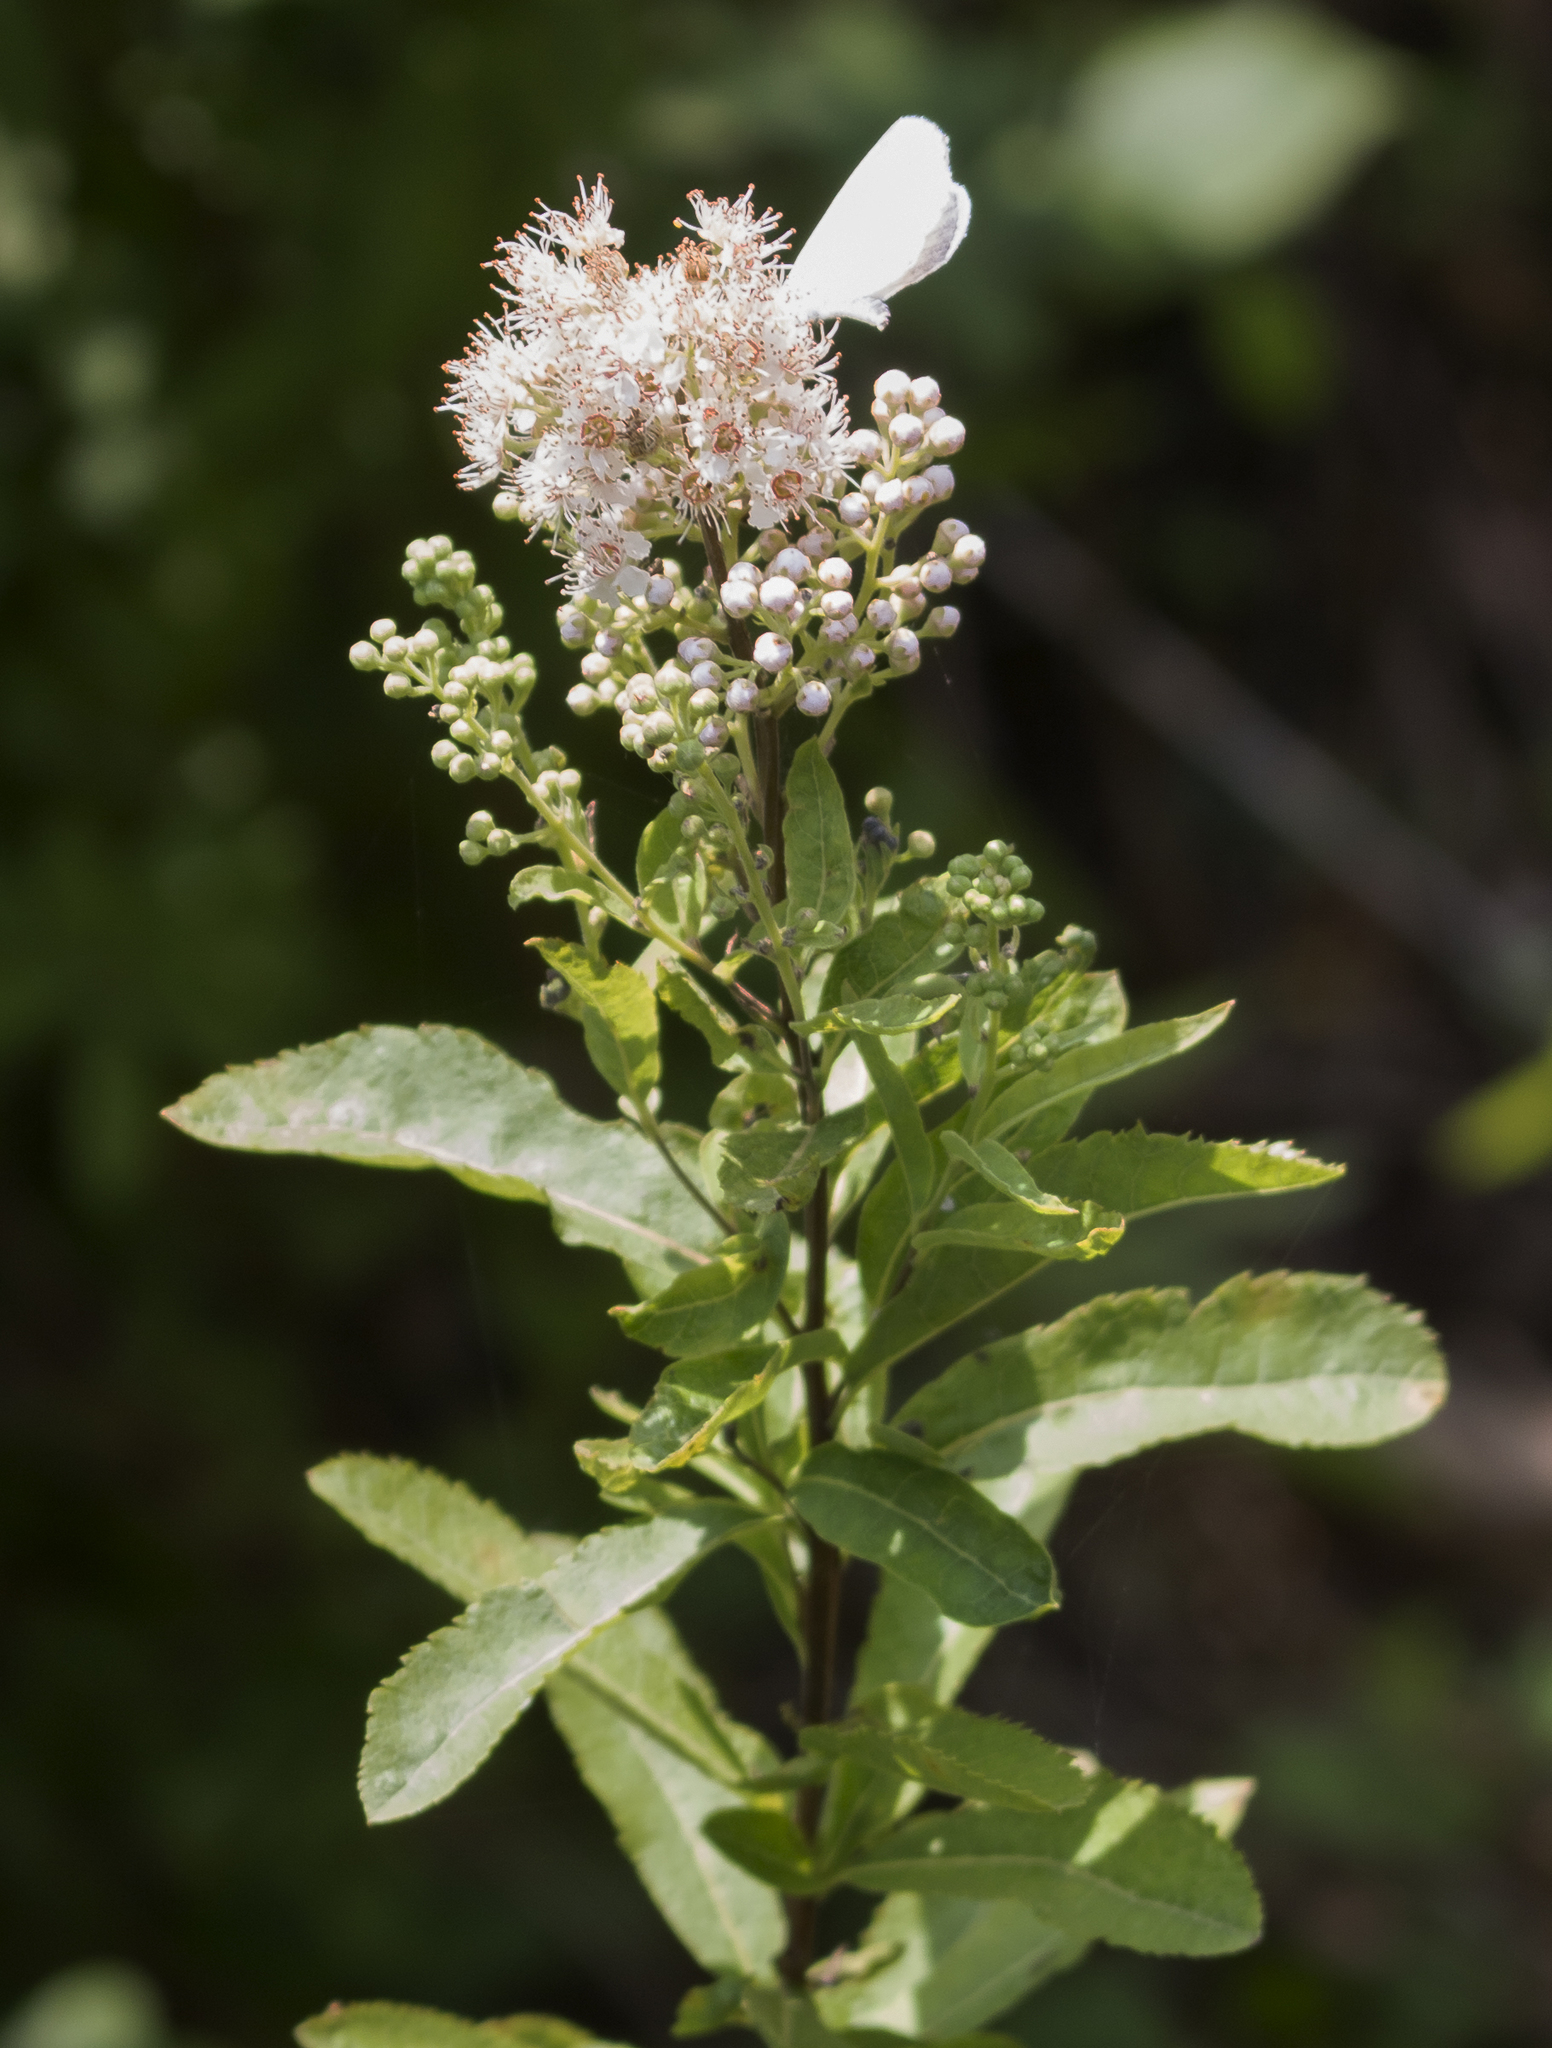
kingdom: Plantae
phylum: Tracheophyta
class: Magnoliopsida
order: Rosales
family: Rosaceae
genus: Spiraea
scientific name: Spiraea alba
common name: Pale bridewort
